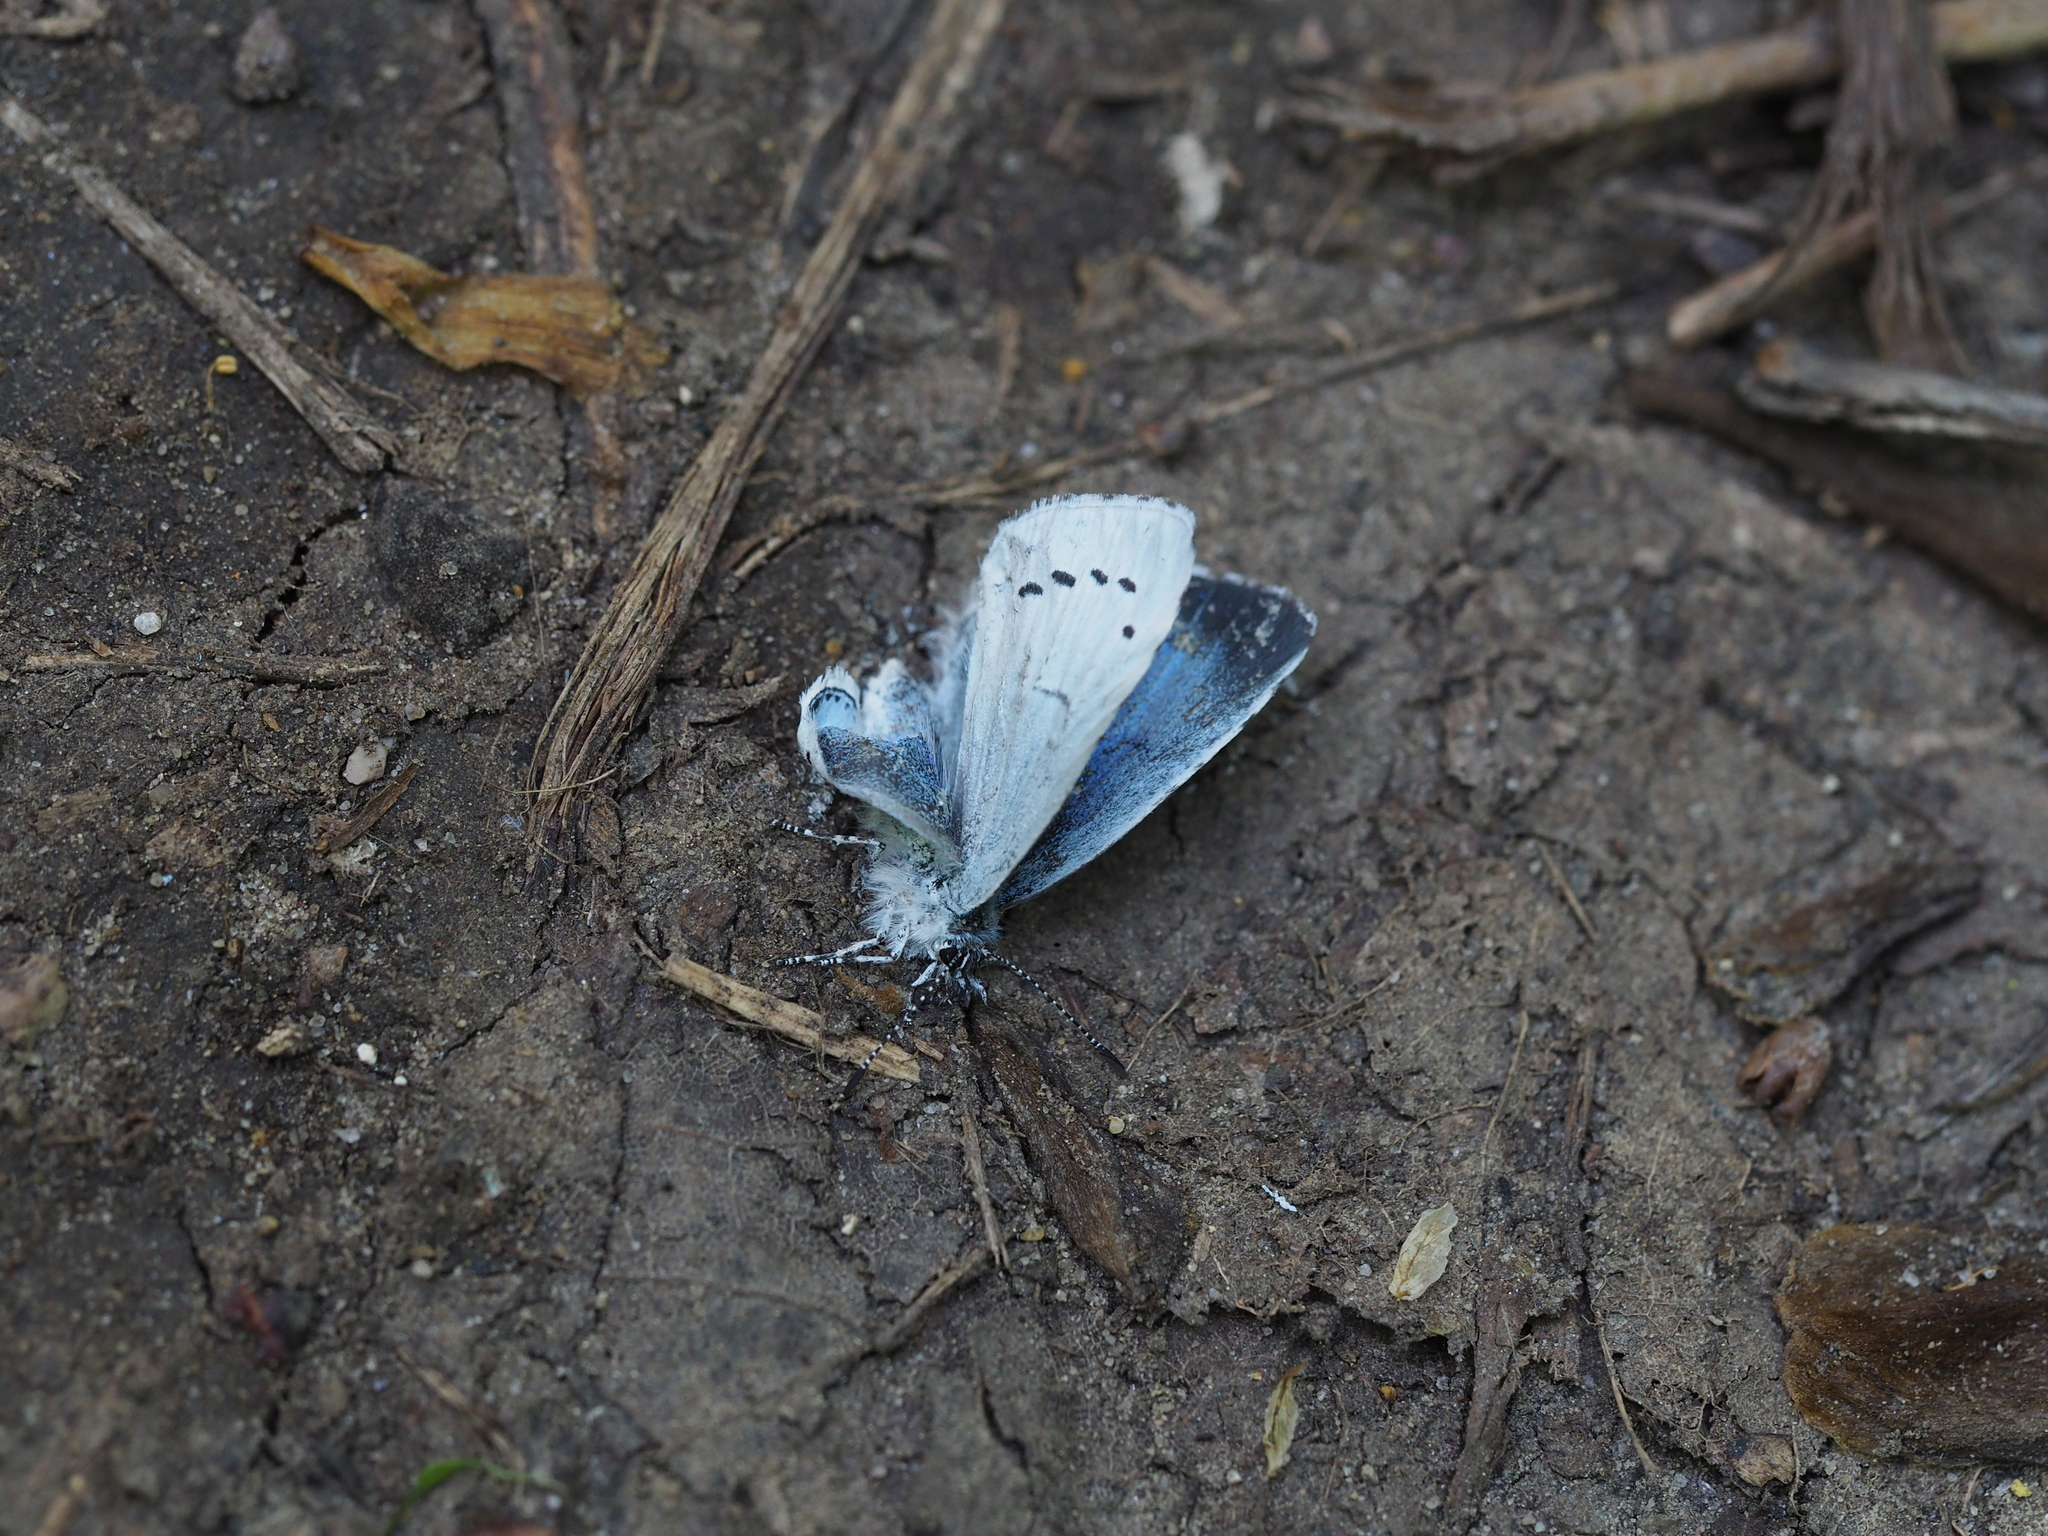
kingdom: Animalia
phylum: Arthropoda
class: Insecta
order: Lepidoptera
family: Lycaenidae
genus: Celastrina
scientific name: Celastrina argiolus
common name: Holly blue
